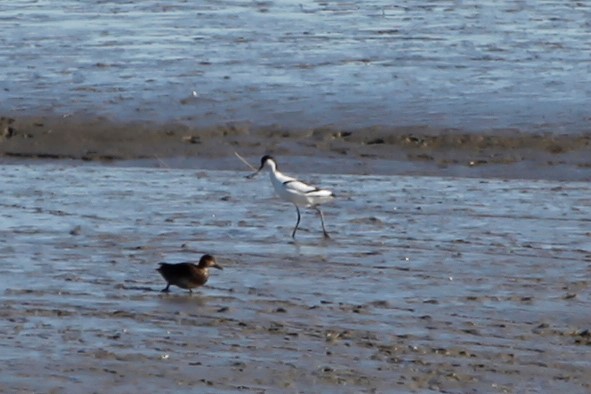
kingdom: Animalia
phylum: Chordata
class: Aves
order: Charadriiformes
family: Recurvirostridae
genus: Recurvirostra
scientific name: Recurvirostra avosetta
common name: Pied avocet
